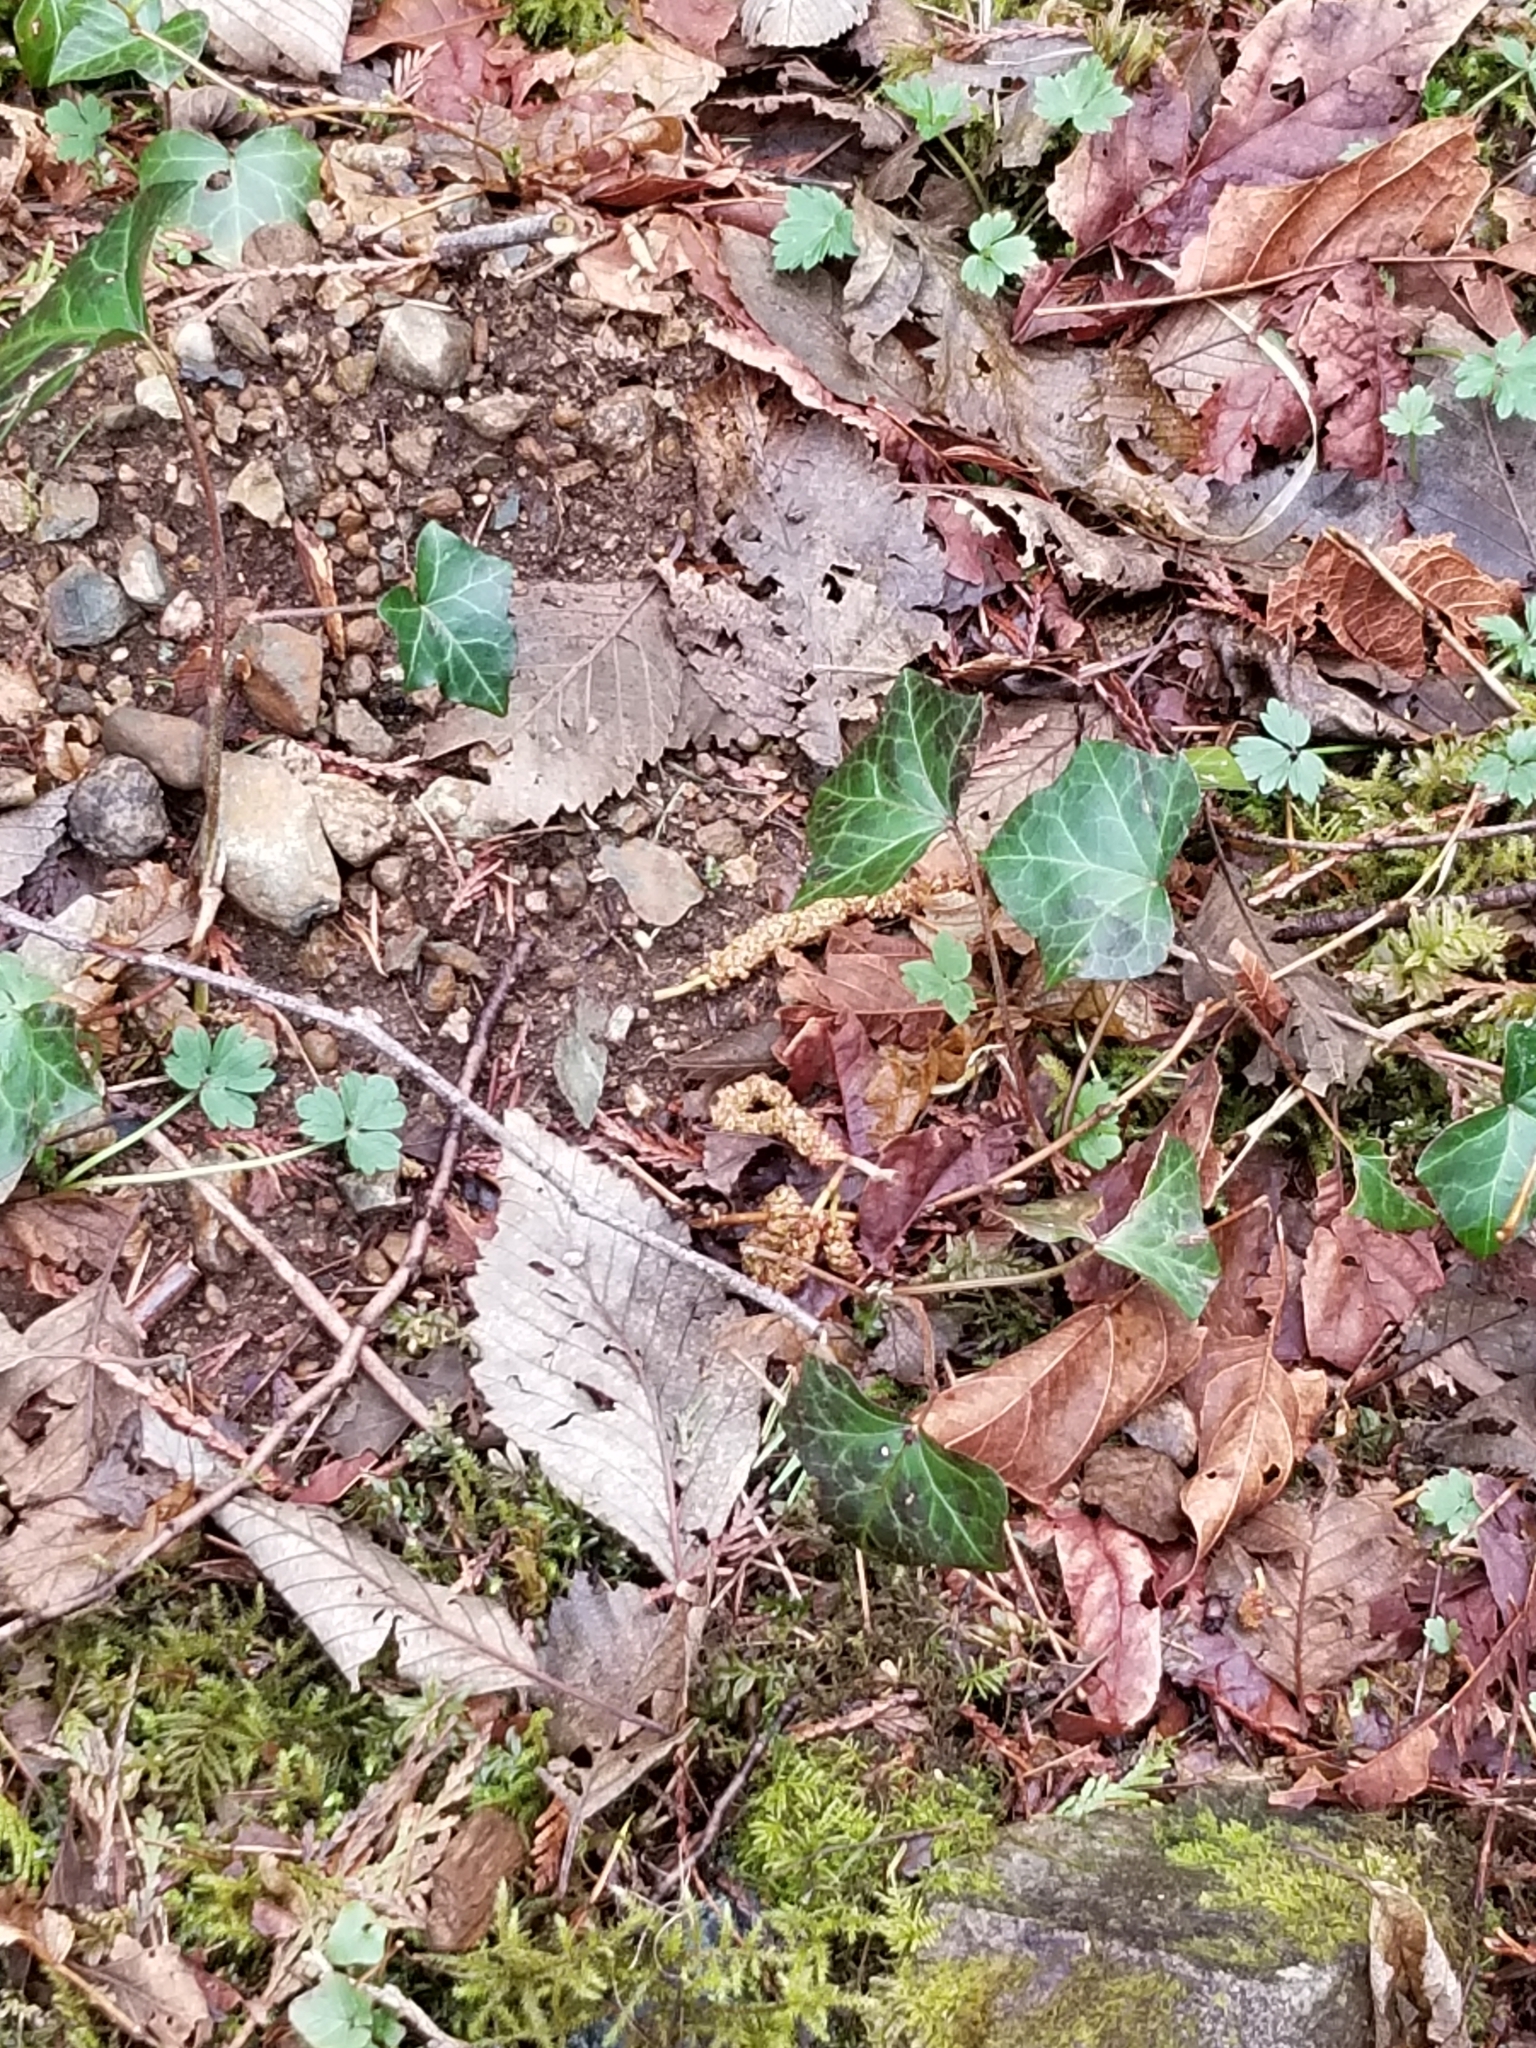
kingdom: Plantae
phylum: Tracheophyta
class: Magnoliopsida
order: Apiales
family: Araliaceae
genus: Hedera
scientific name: Hedera helix
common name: Ivy
